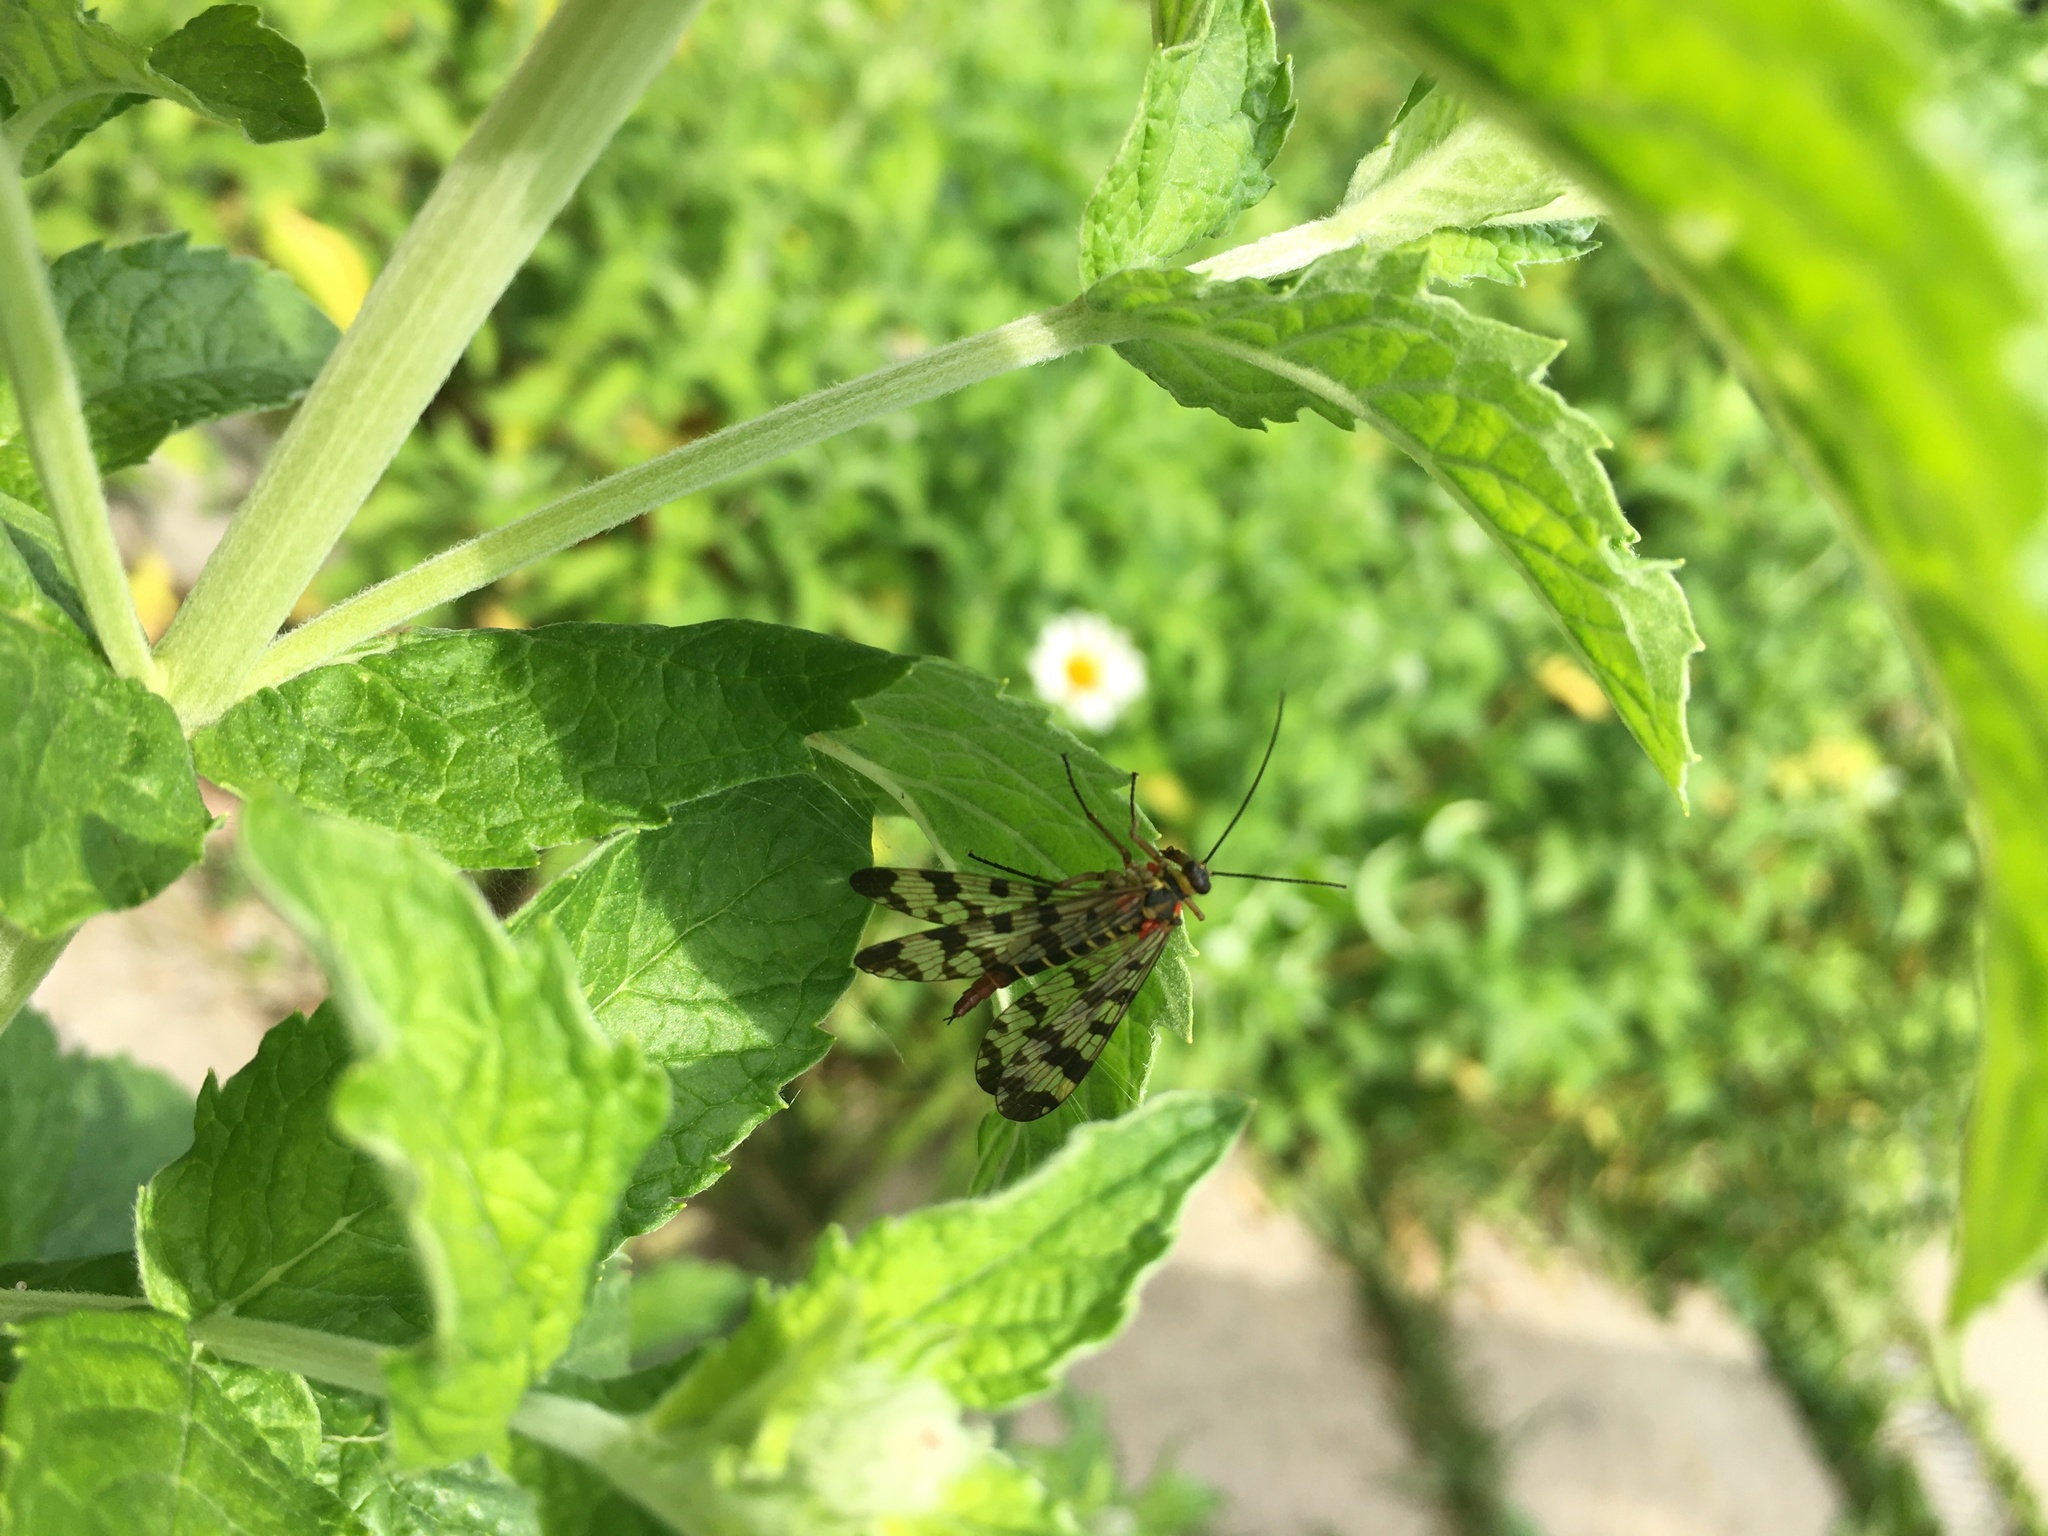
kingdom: Animalia
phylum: Arthropoda
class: Insecta
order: Mecoptera
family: Panorpidae
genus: Panorpa
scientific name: Panorpa communis
